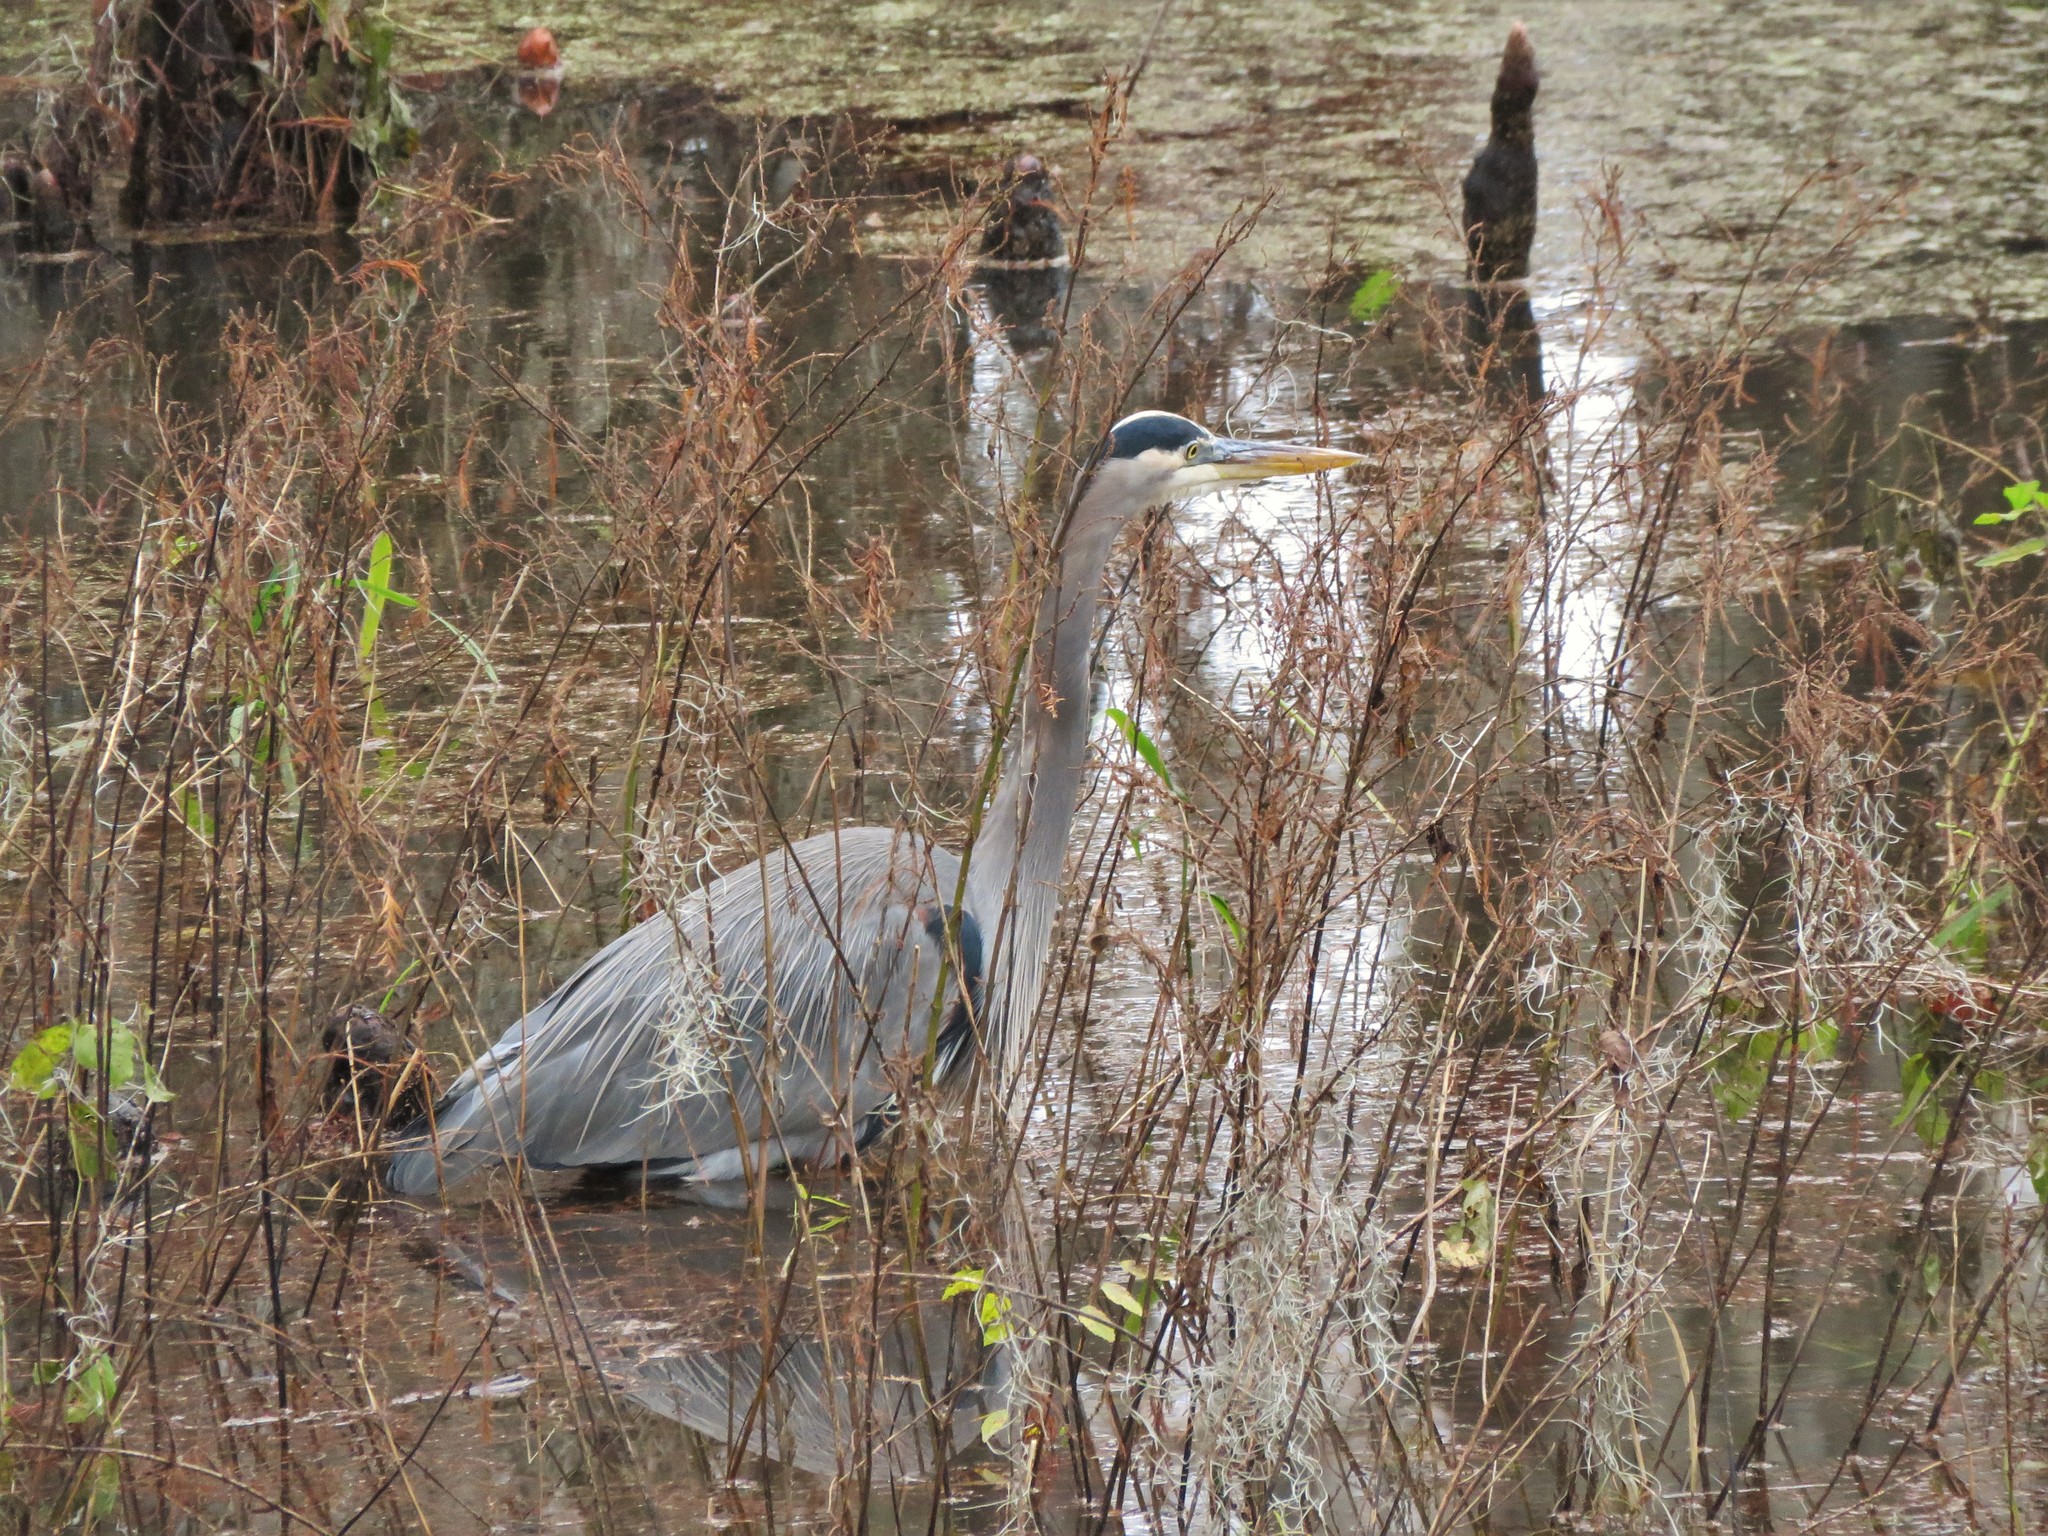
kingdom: Animalia
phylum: Chordata
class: Aves
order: Pelecaniformes
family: Ardeidae
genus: Ardea
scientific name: Ardea herodias
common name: Great blue heron
